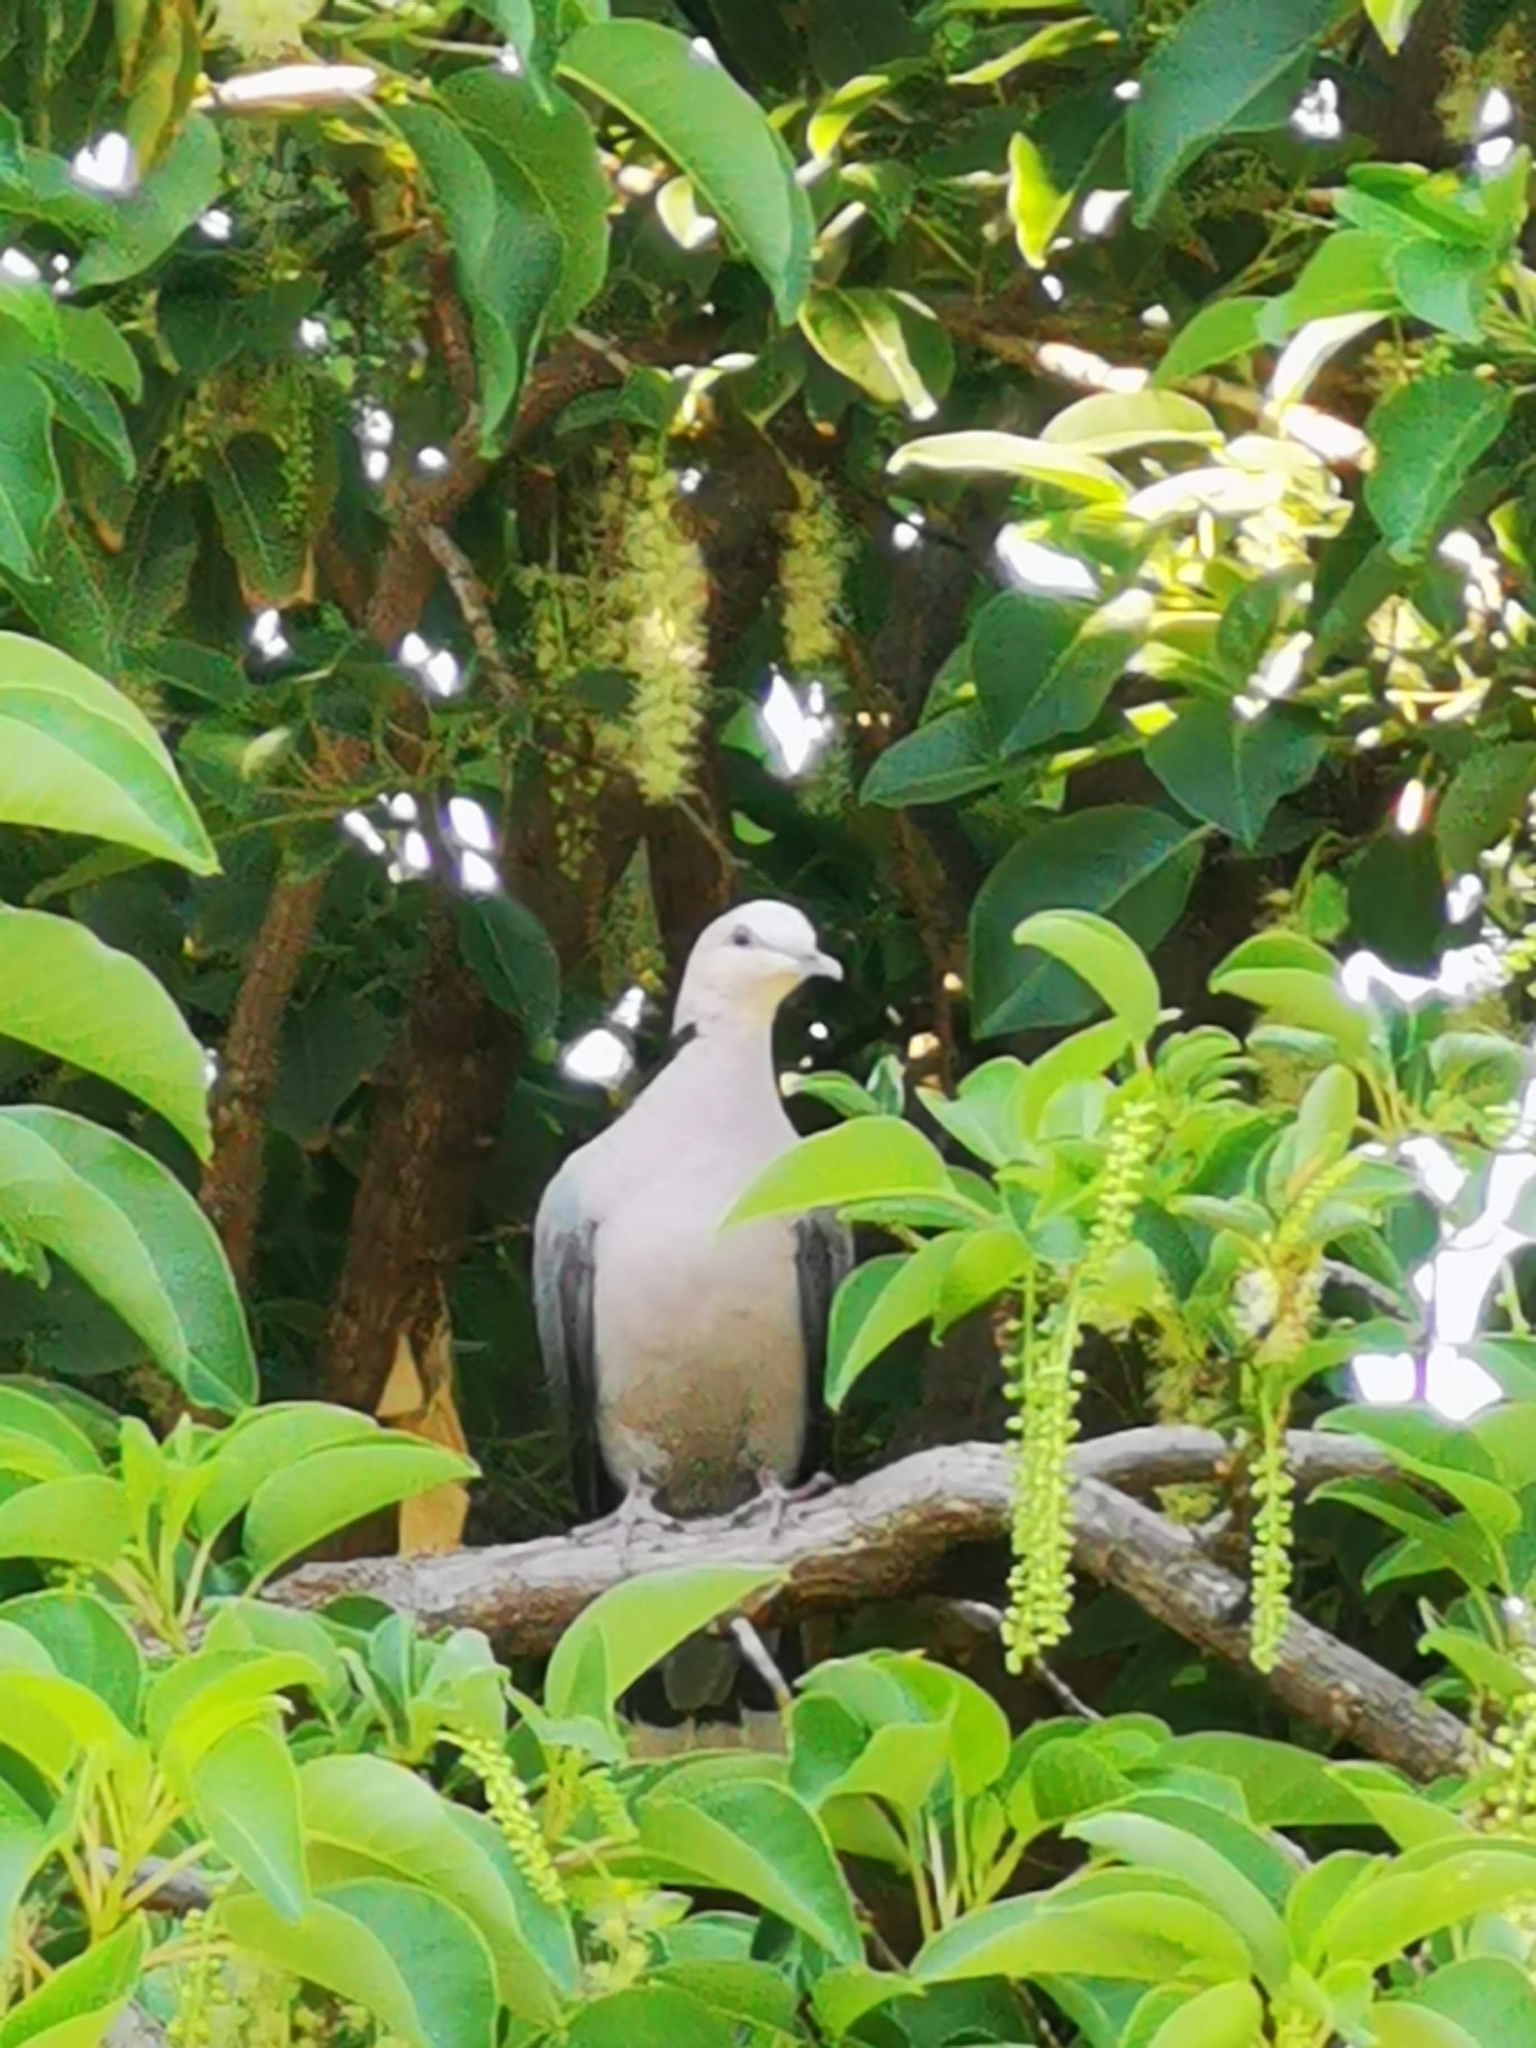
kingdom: Animalia
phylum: Chordata
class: Aves
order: Columbiformes
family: Columbidae
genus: Streptopelia
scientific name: Streptopelia semitorquata
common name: Red-eyed dove
